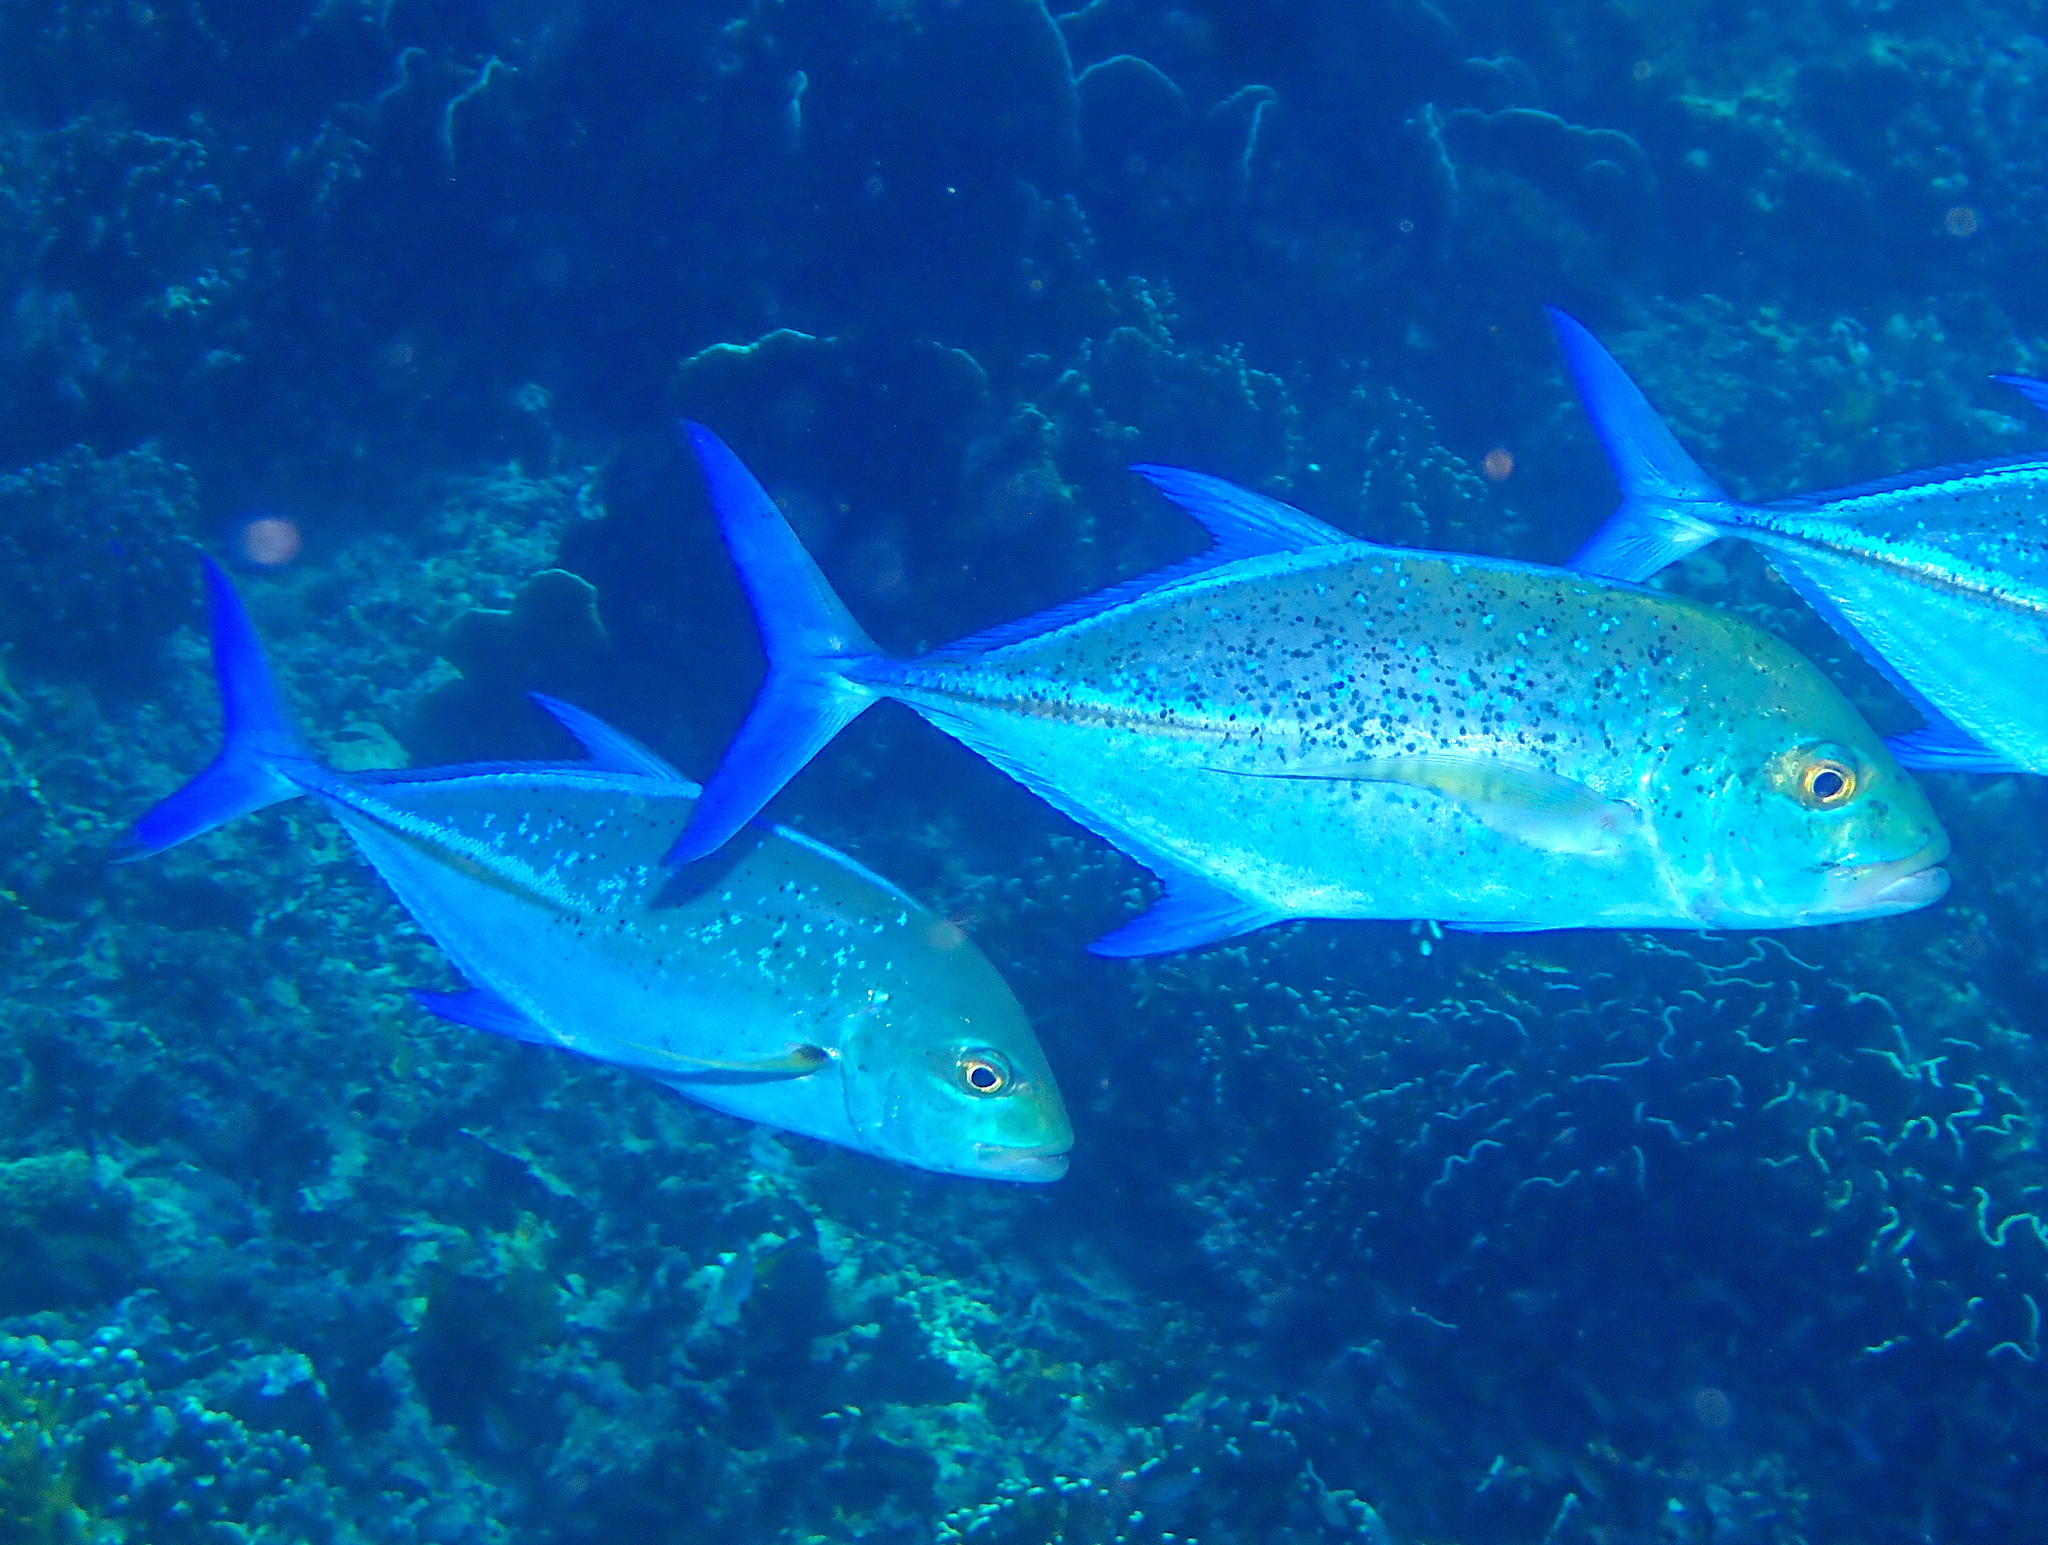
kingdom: Animalia
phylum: Chordata
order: Perciformes
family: Carangidae
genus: Caranx
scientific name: Caranx melampygus
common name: Bluefin trevally
